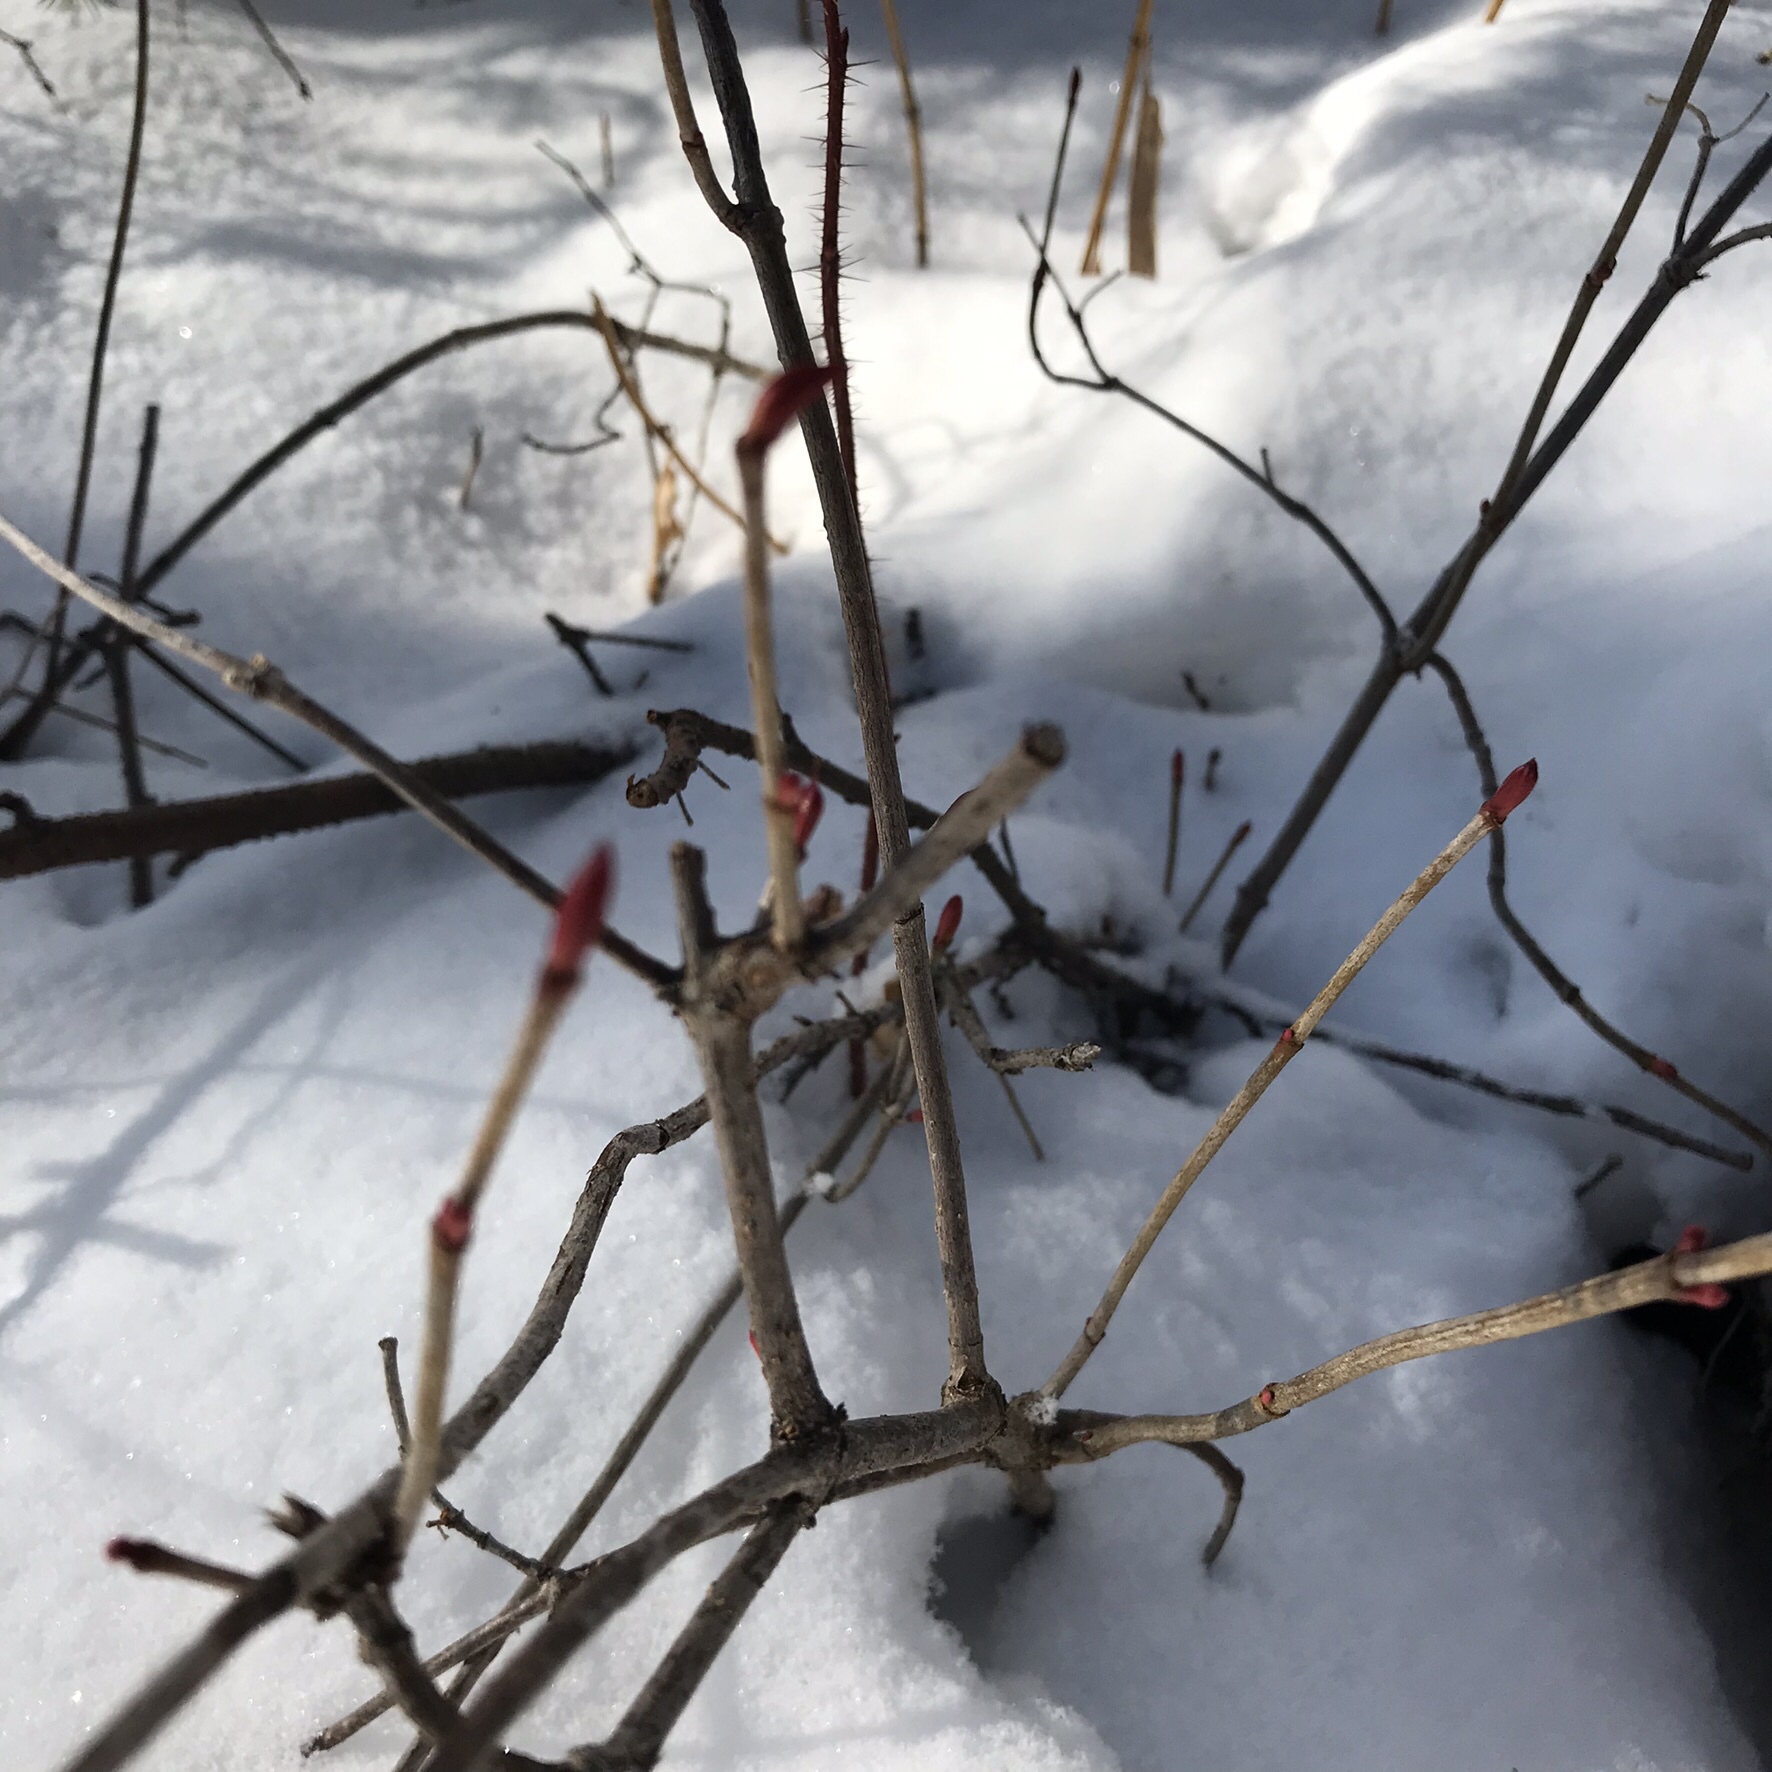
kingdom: Plantae
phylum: Tracheophyta
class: Magnoliopsida
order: Dipsacales
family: Viburnaceae
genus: Viburnum
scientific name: Viburnum edule
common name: Mooseberry
